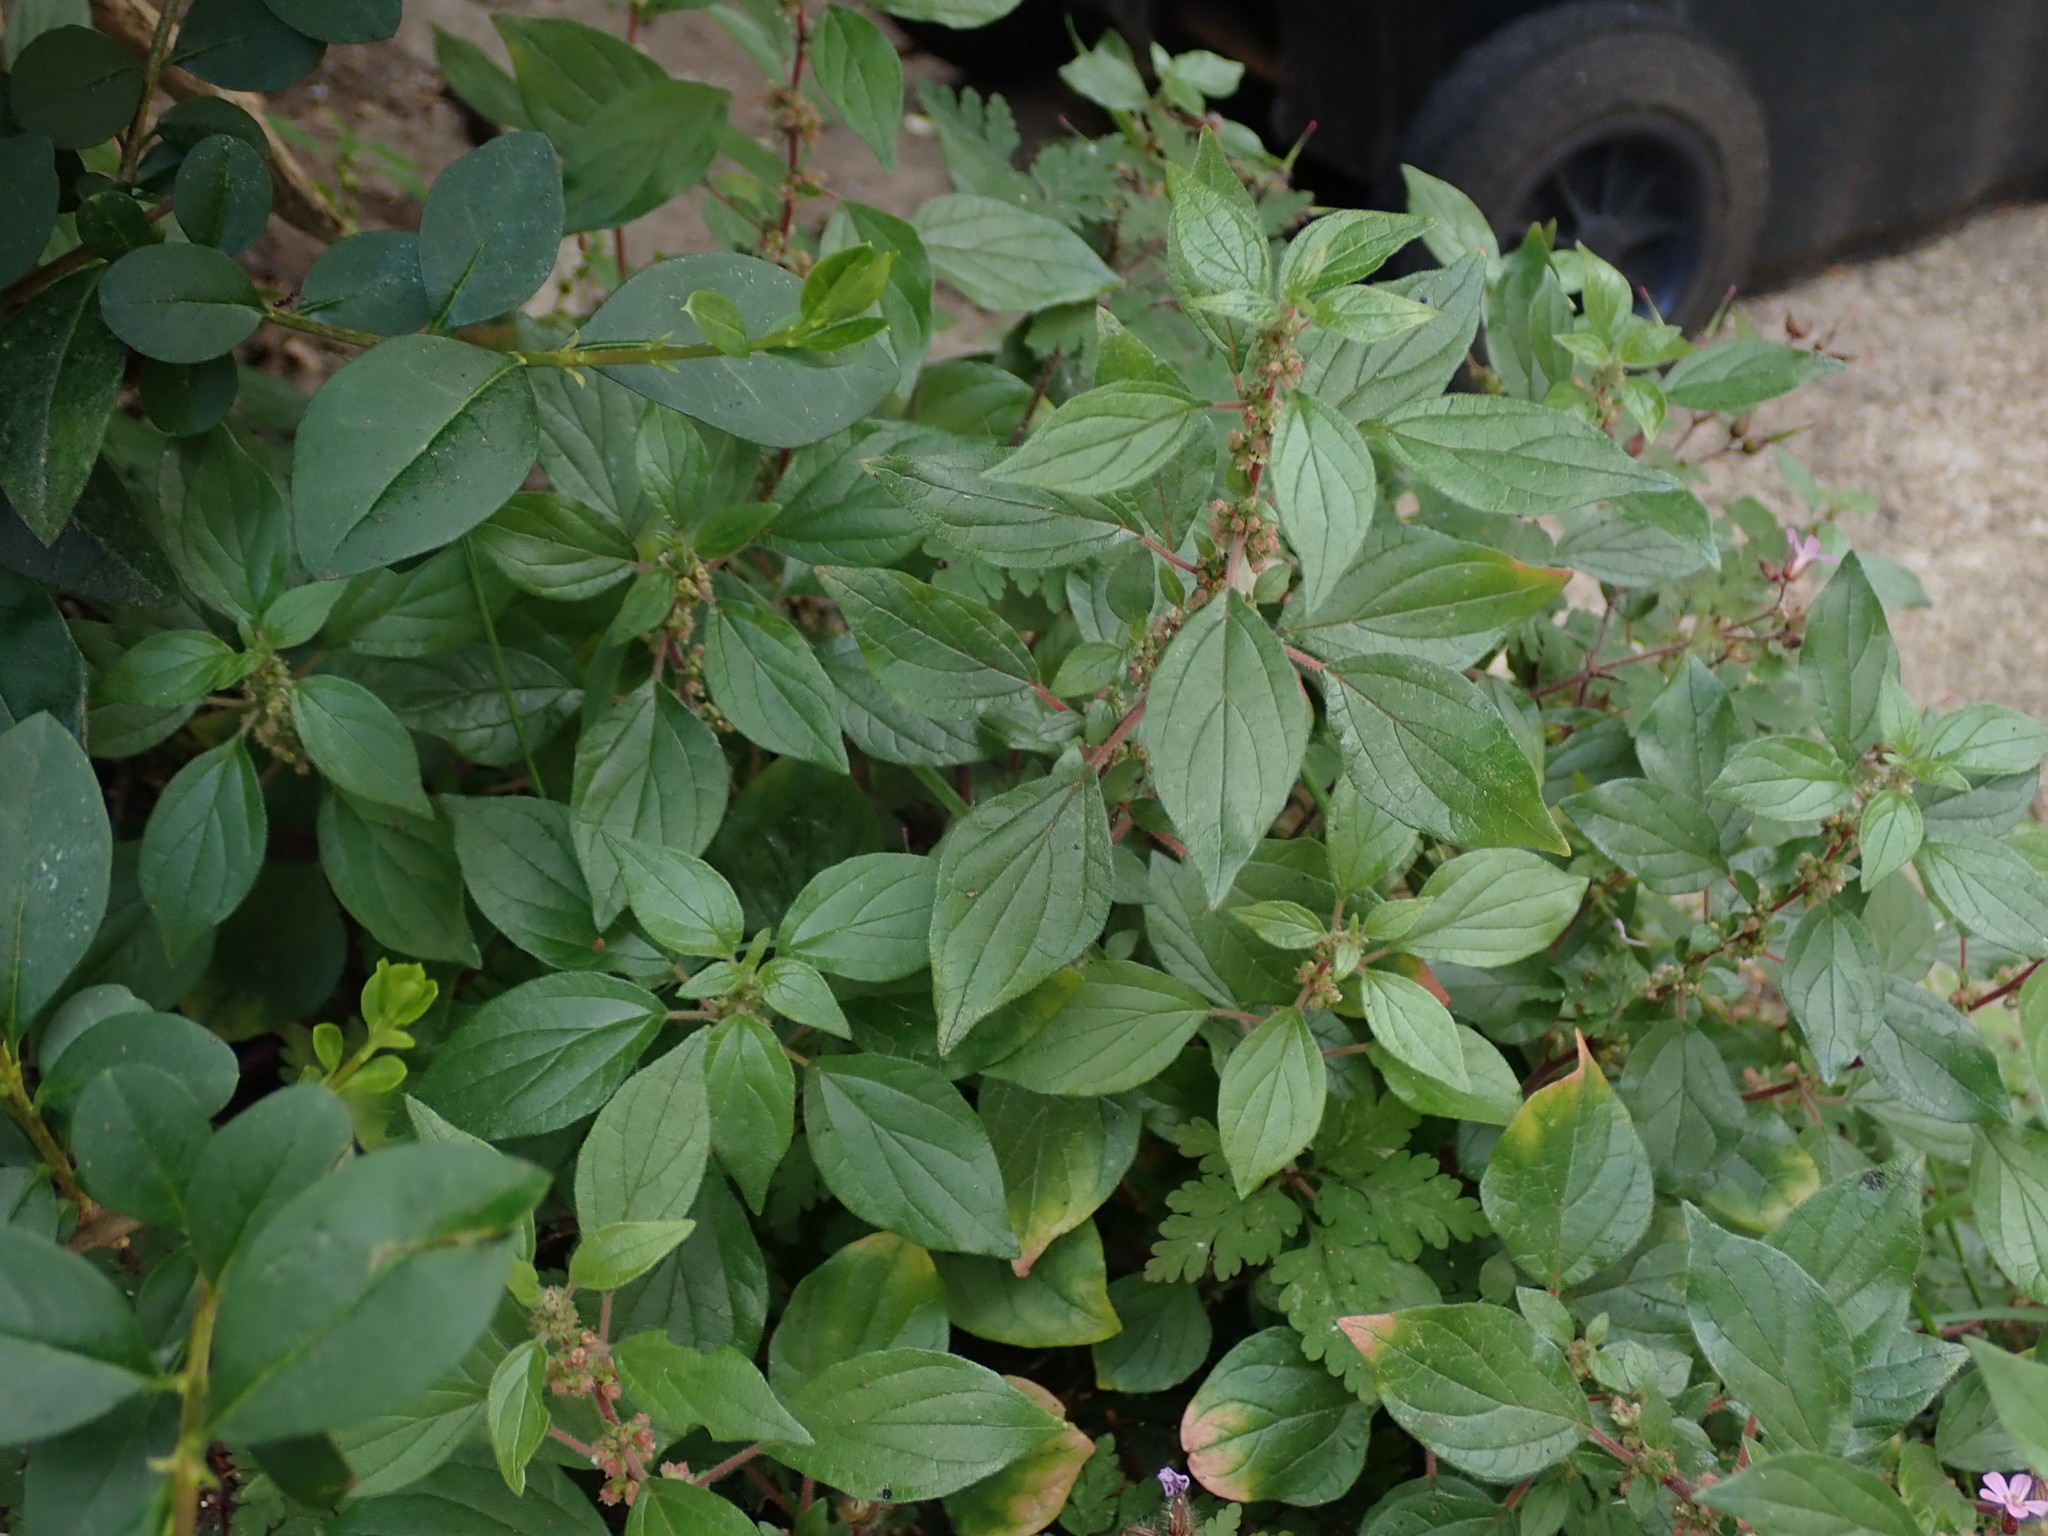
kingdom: Plantae
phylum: Tracheophyta
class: Magnoliopsida
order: Rosales
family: Urticaceae
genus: Parietaria
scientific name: Parietaria judaica
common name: Pellitory-of-the-wall
